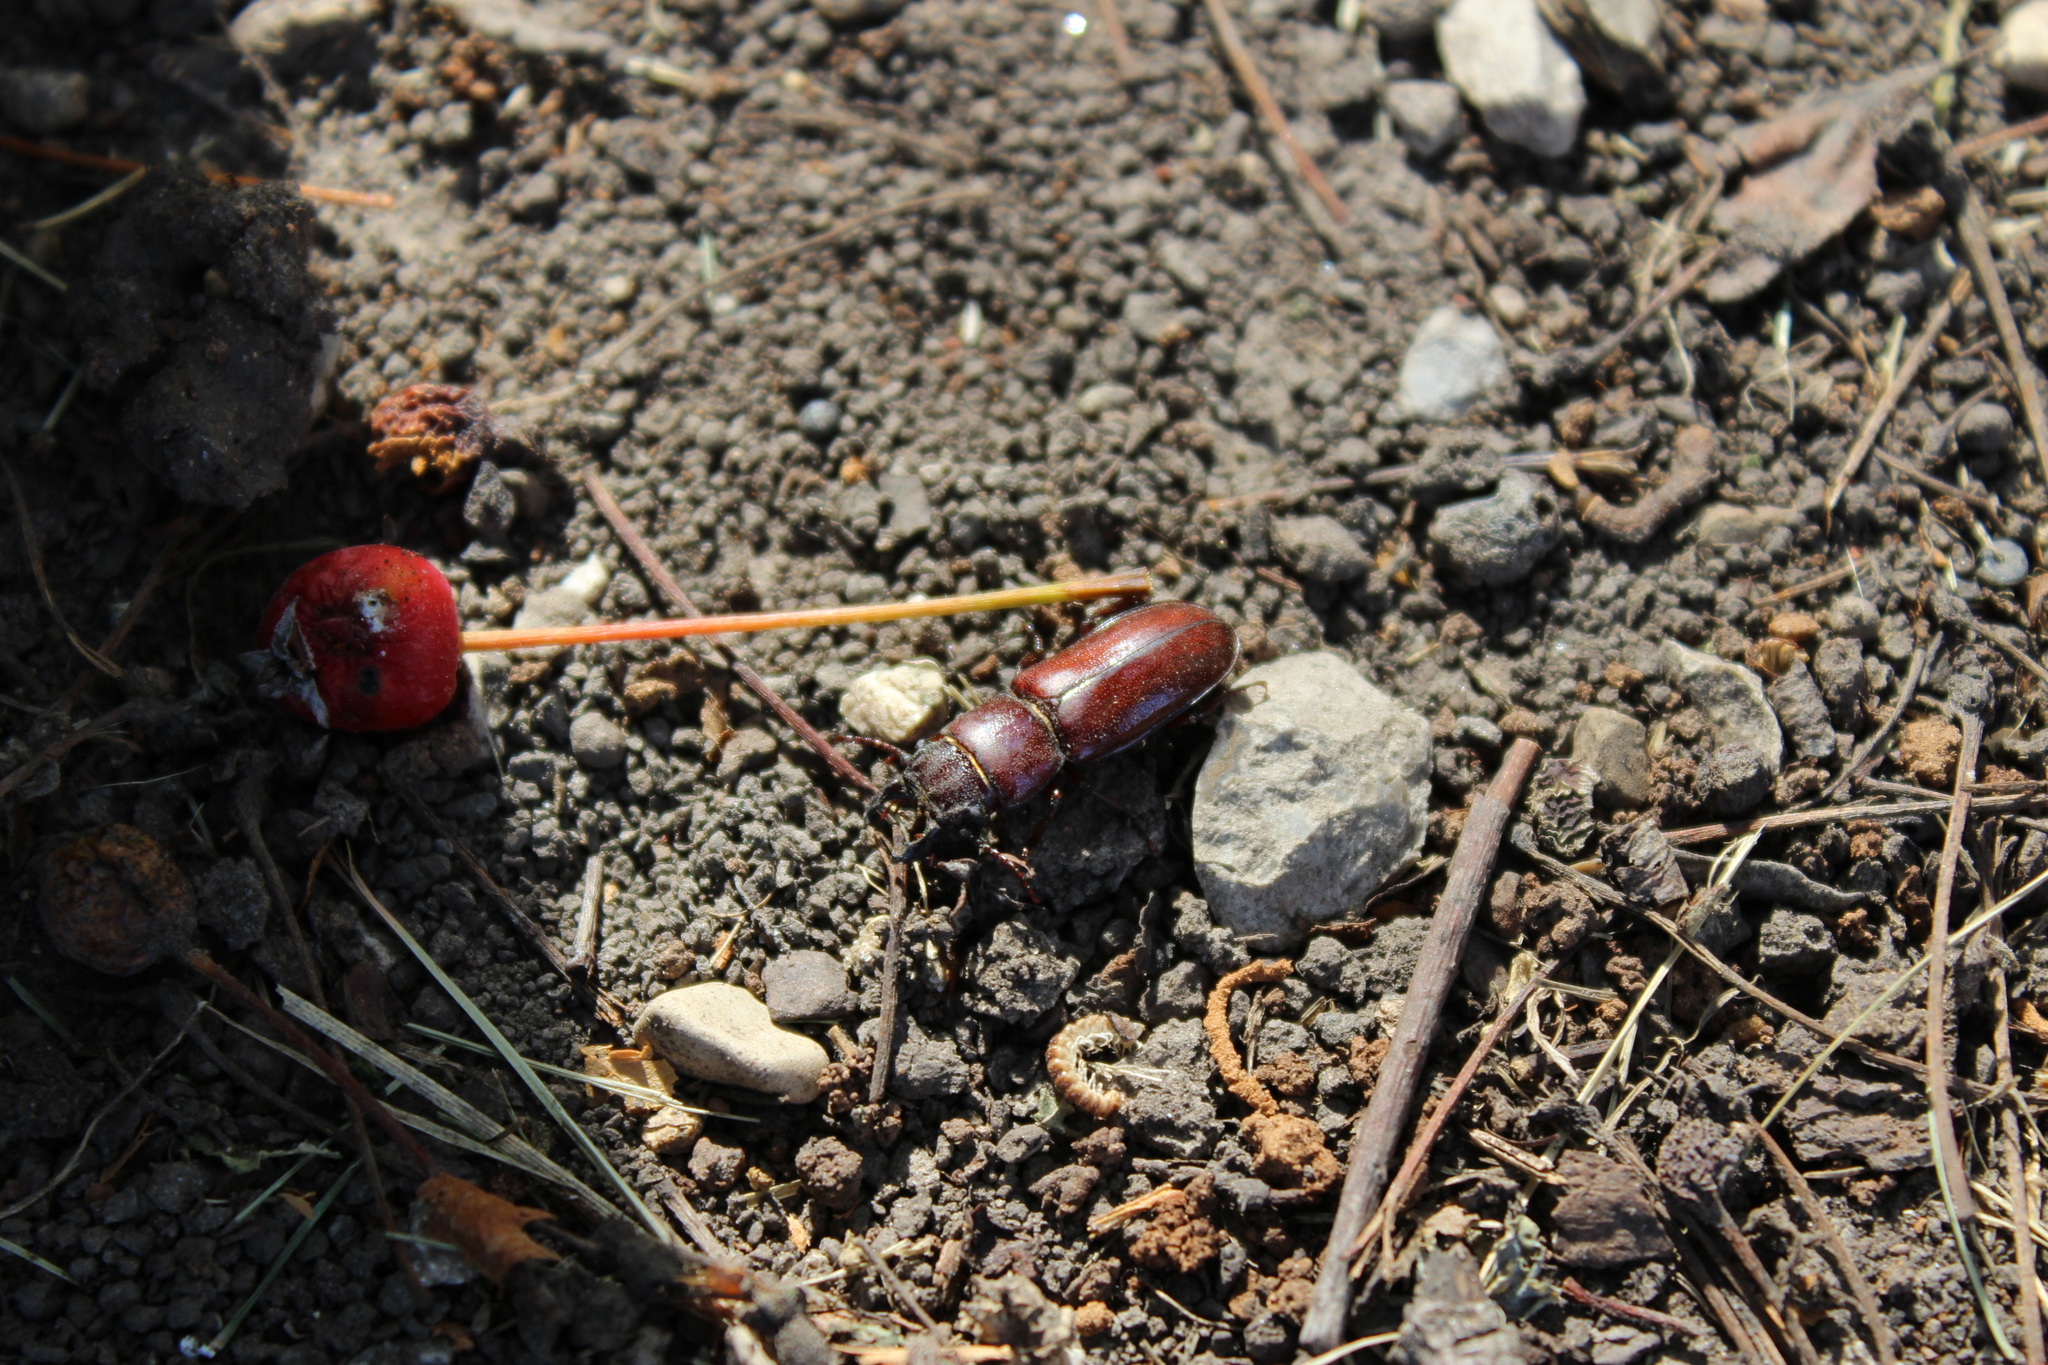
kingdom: Animalia
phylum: Arthropoda
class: Insecta
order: Coleoptera
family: Cerambycidae
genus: Neandra
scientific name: Neandra brunnea
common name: Pole borer
